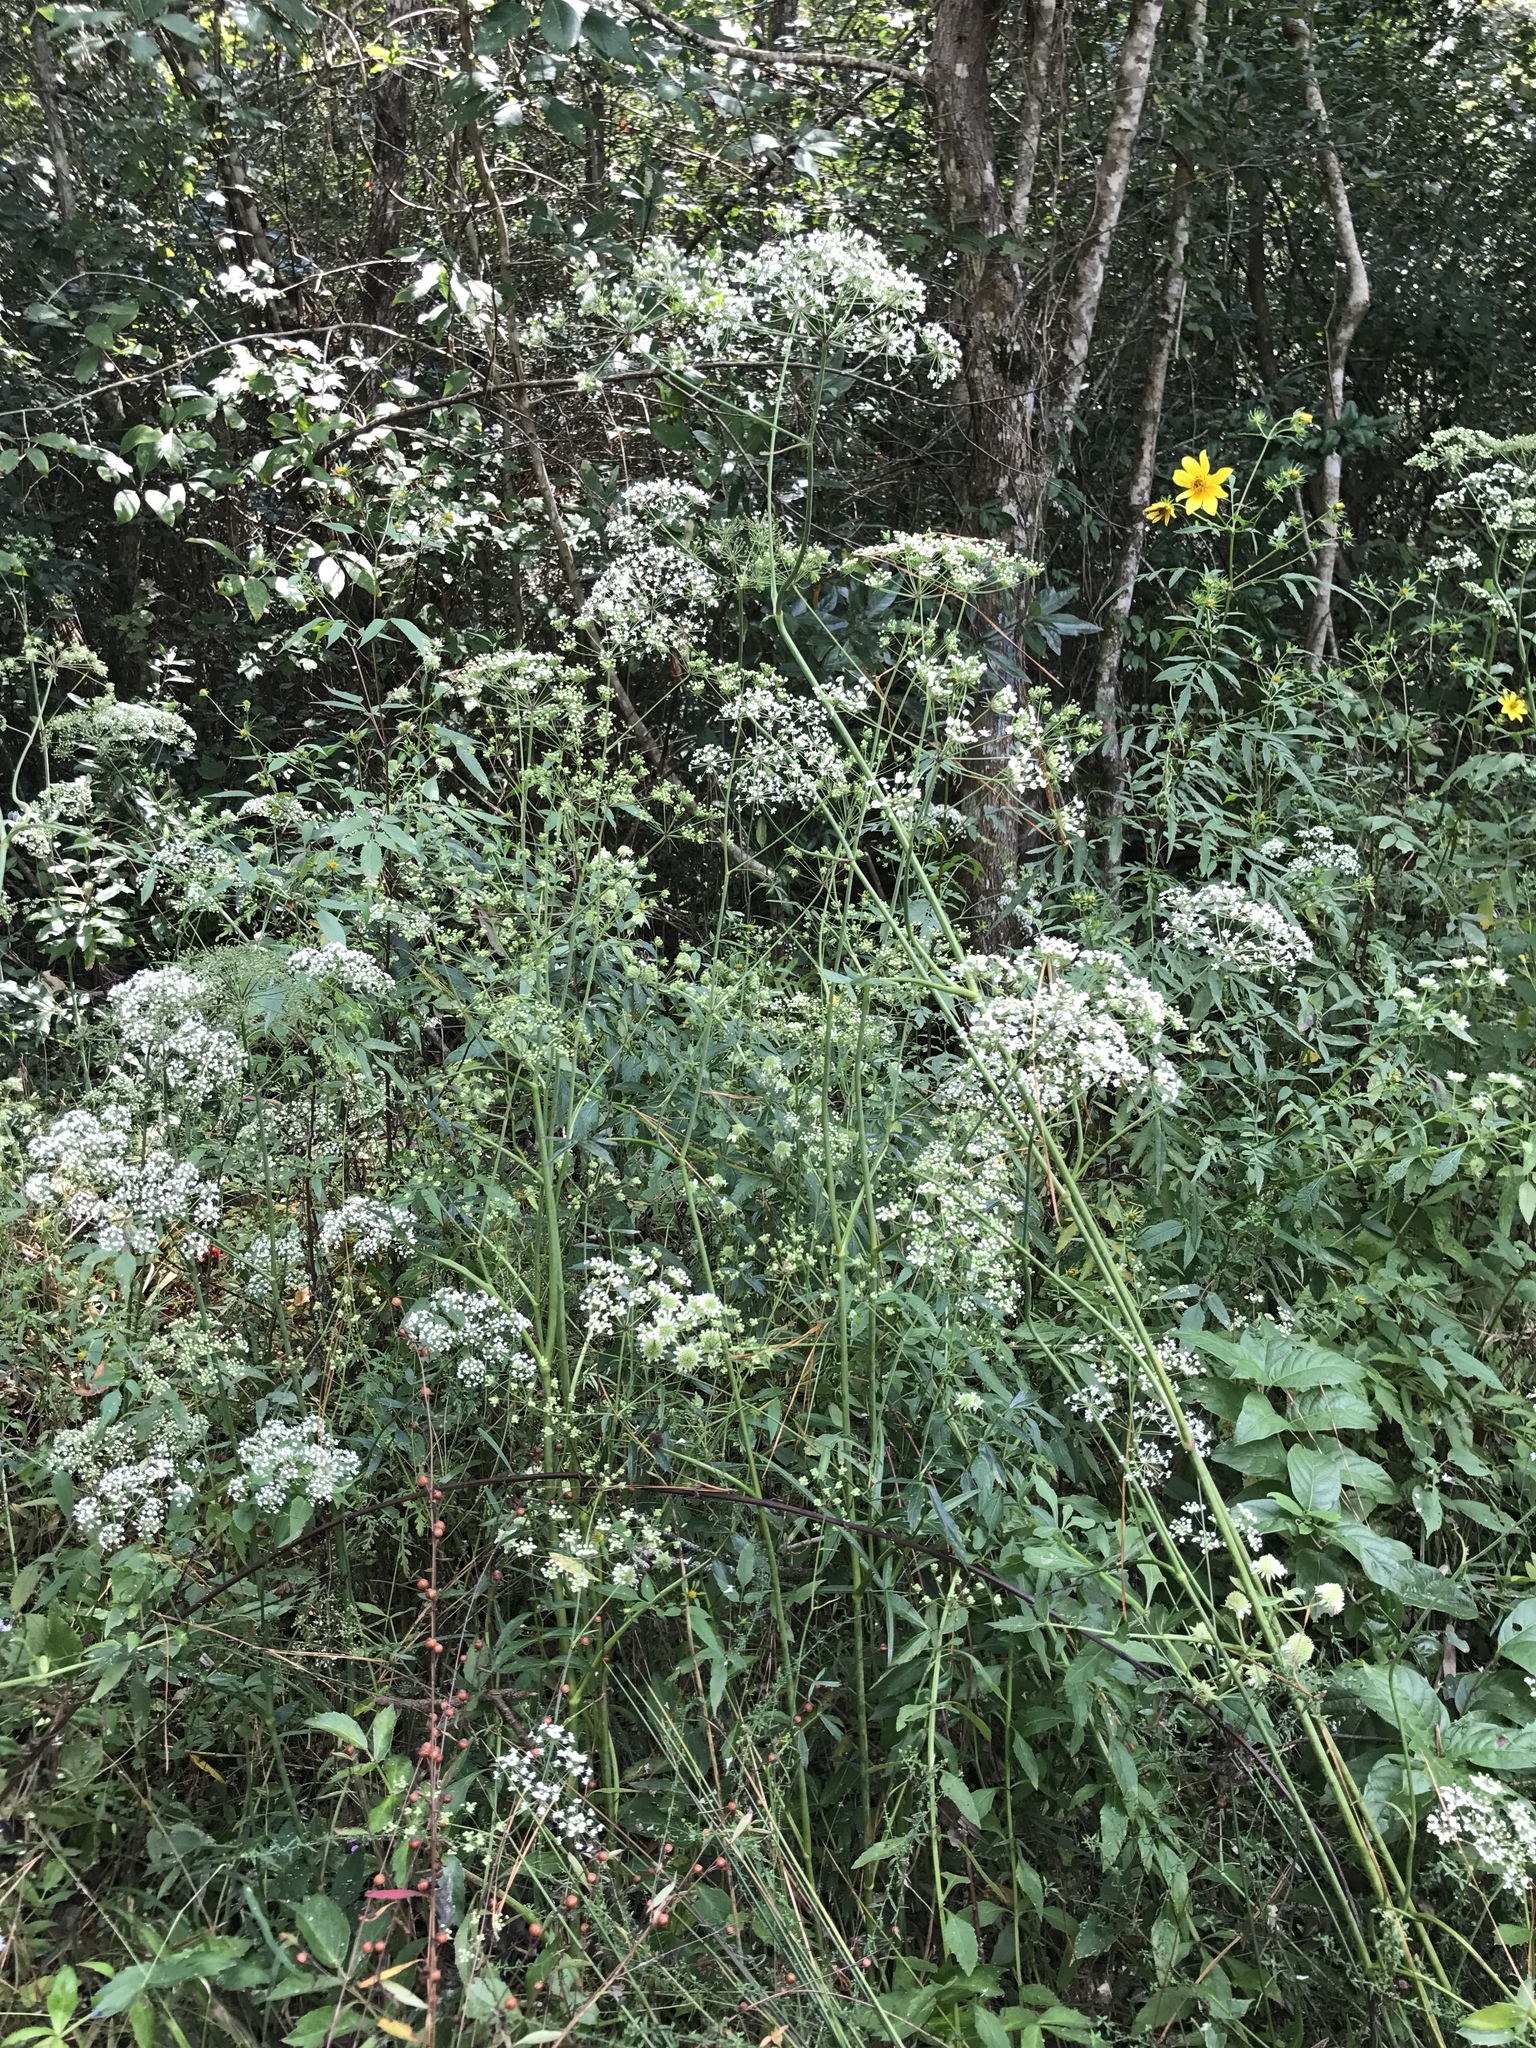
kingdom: Plantae
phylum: Tracheophyta
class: Magnoliopsida
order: Apiales
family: Apiaceae
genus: Oxypolis
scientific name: Oxypolis rigidior
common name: Cowbane
